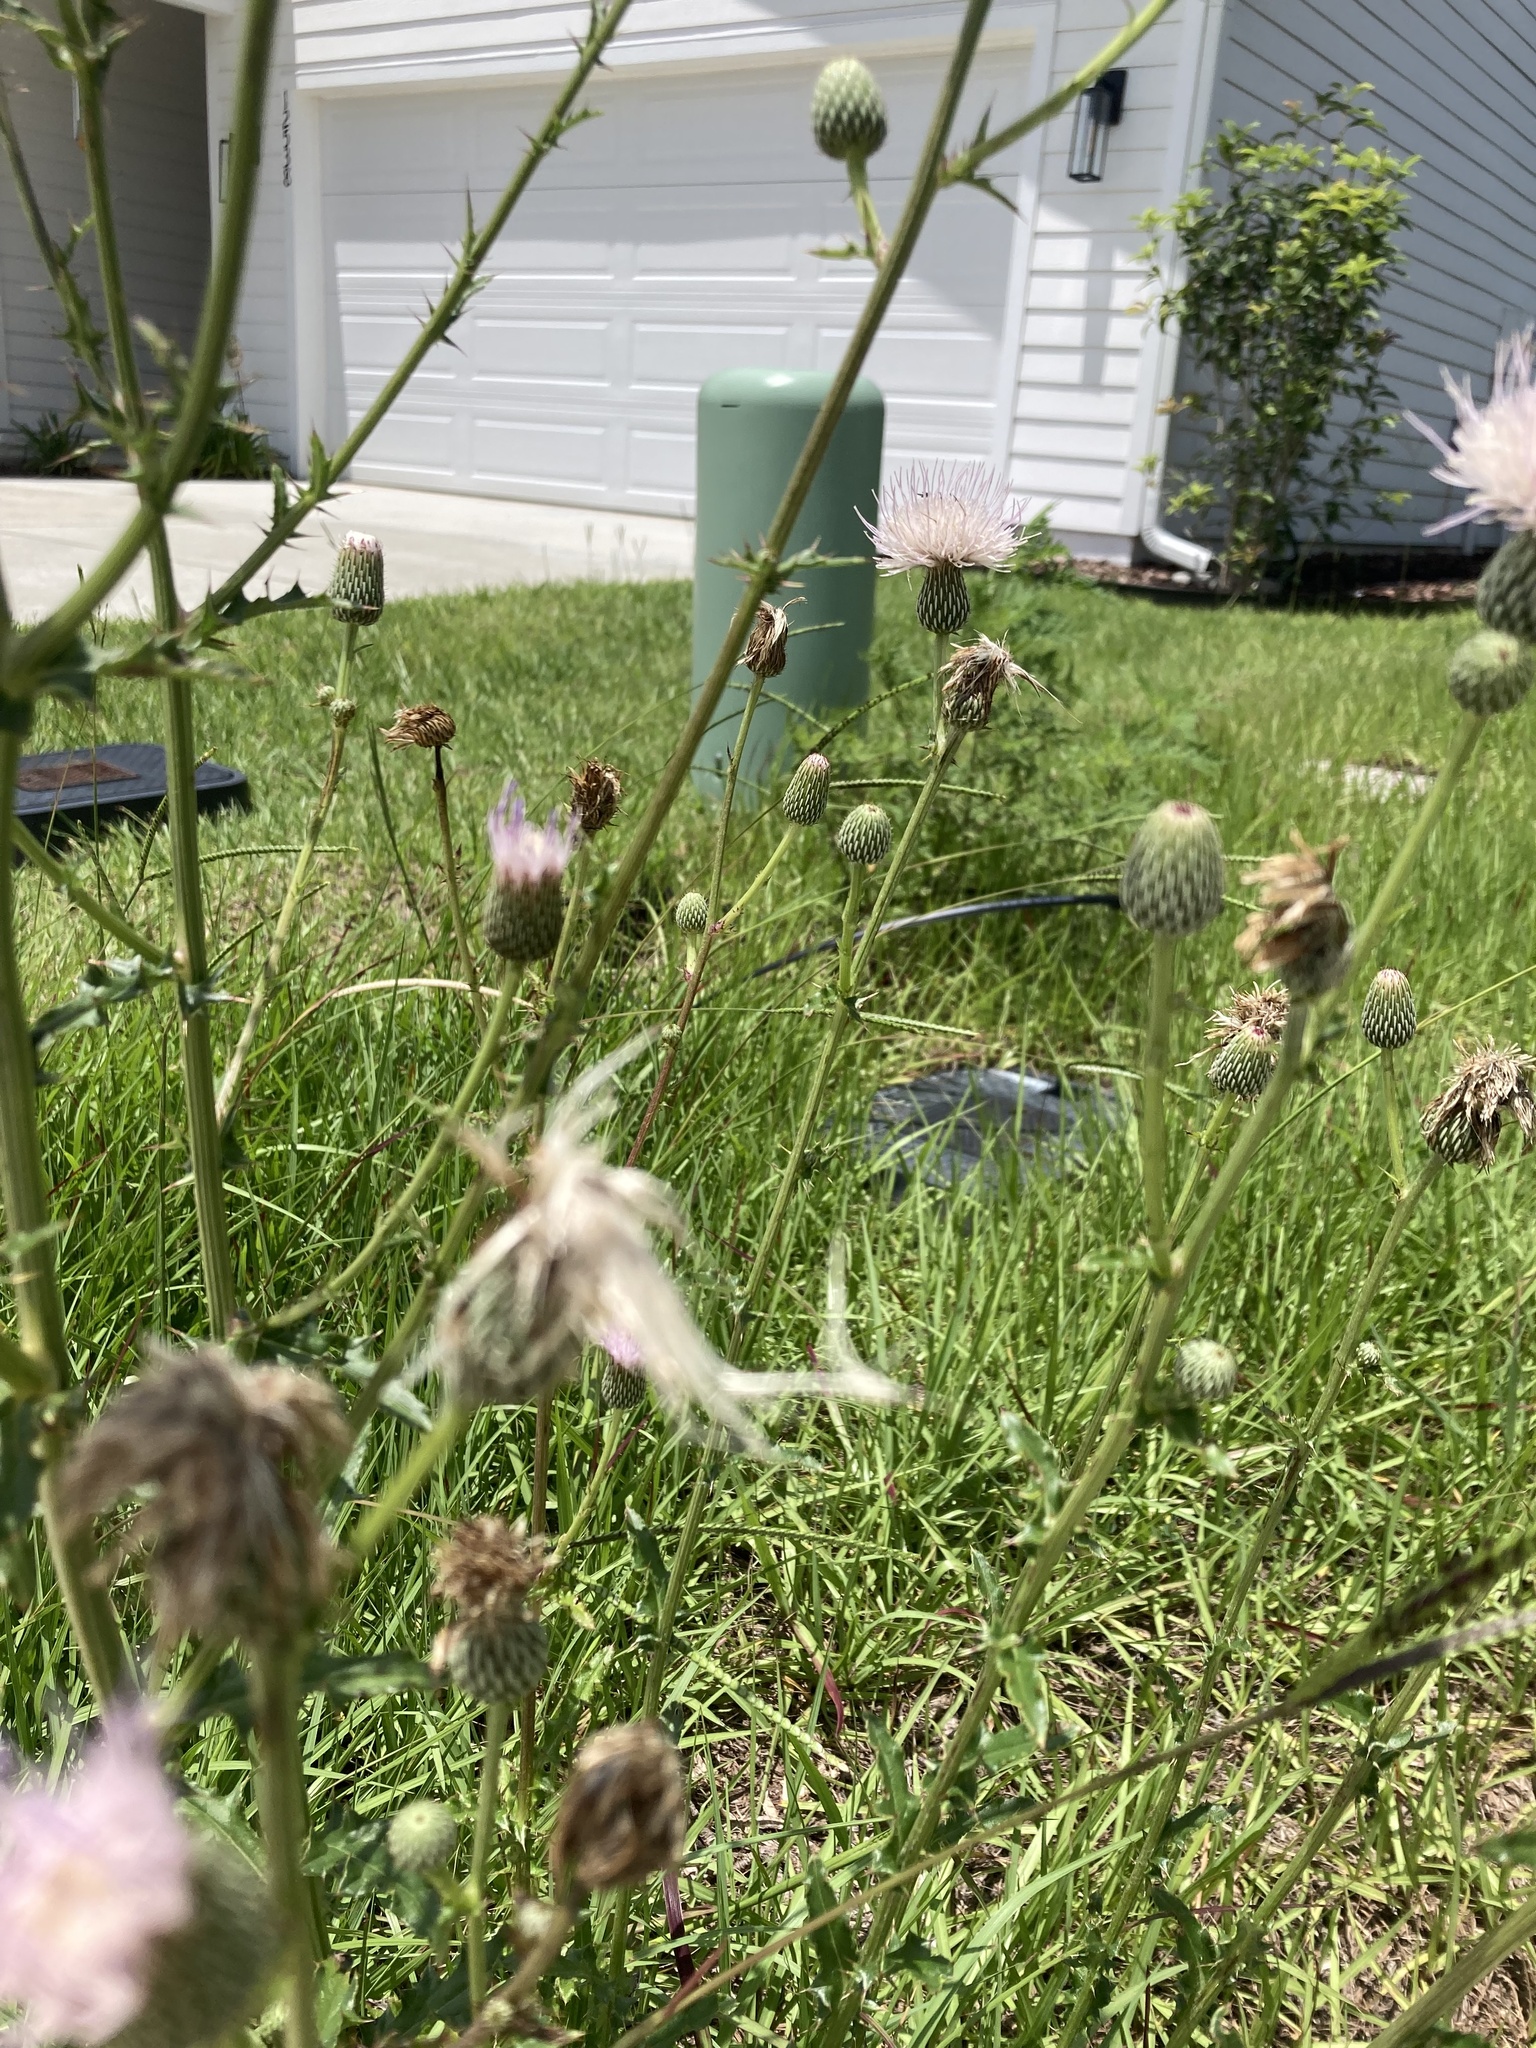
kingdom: Plantae
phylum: Tracheophyta
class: Magnoliopsida
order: Asterales
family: Asteraceae
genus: Cirsium
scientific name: Cirsium nuttalii
